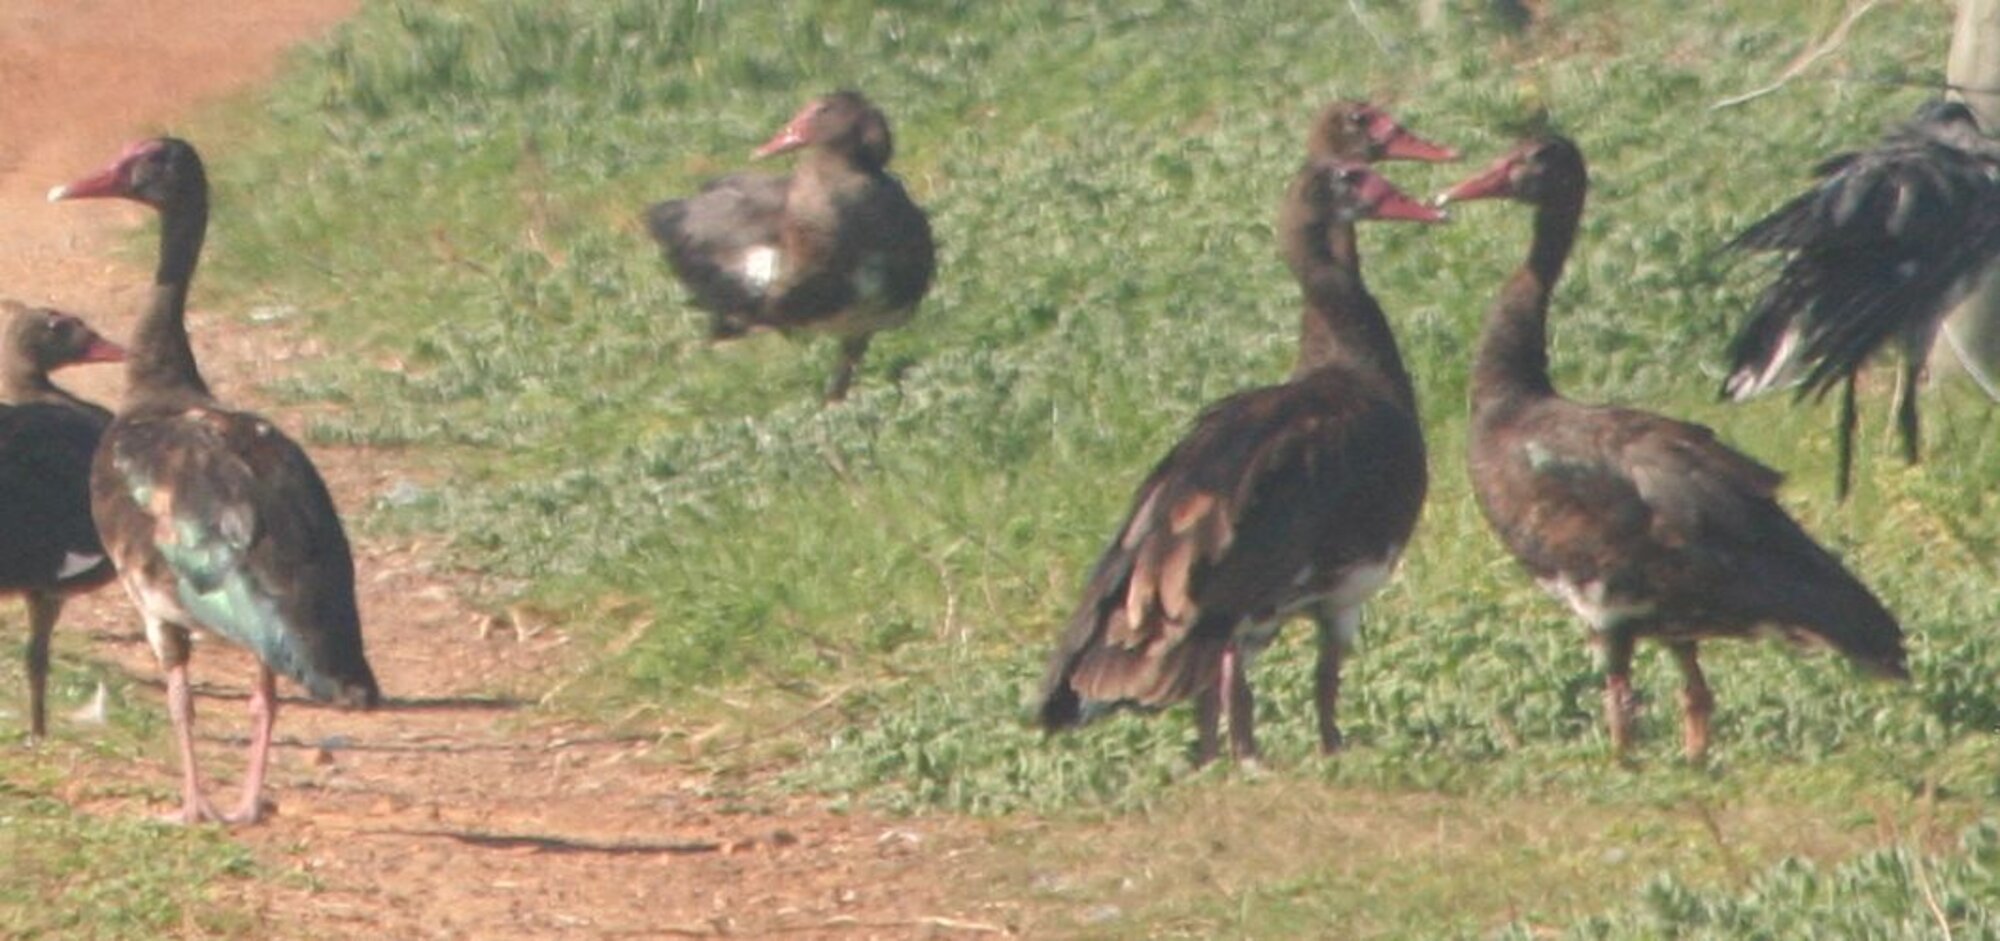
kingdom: Animalia
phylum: Chordata
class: Aves
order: Anseriformes
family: Anatidae
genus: Plectropterus
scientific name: Plectropterus gambensis
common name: Spur-winged goose
